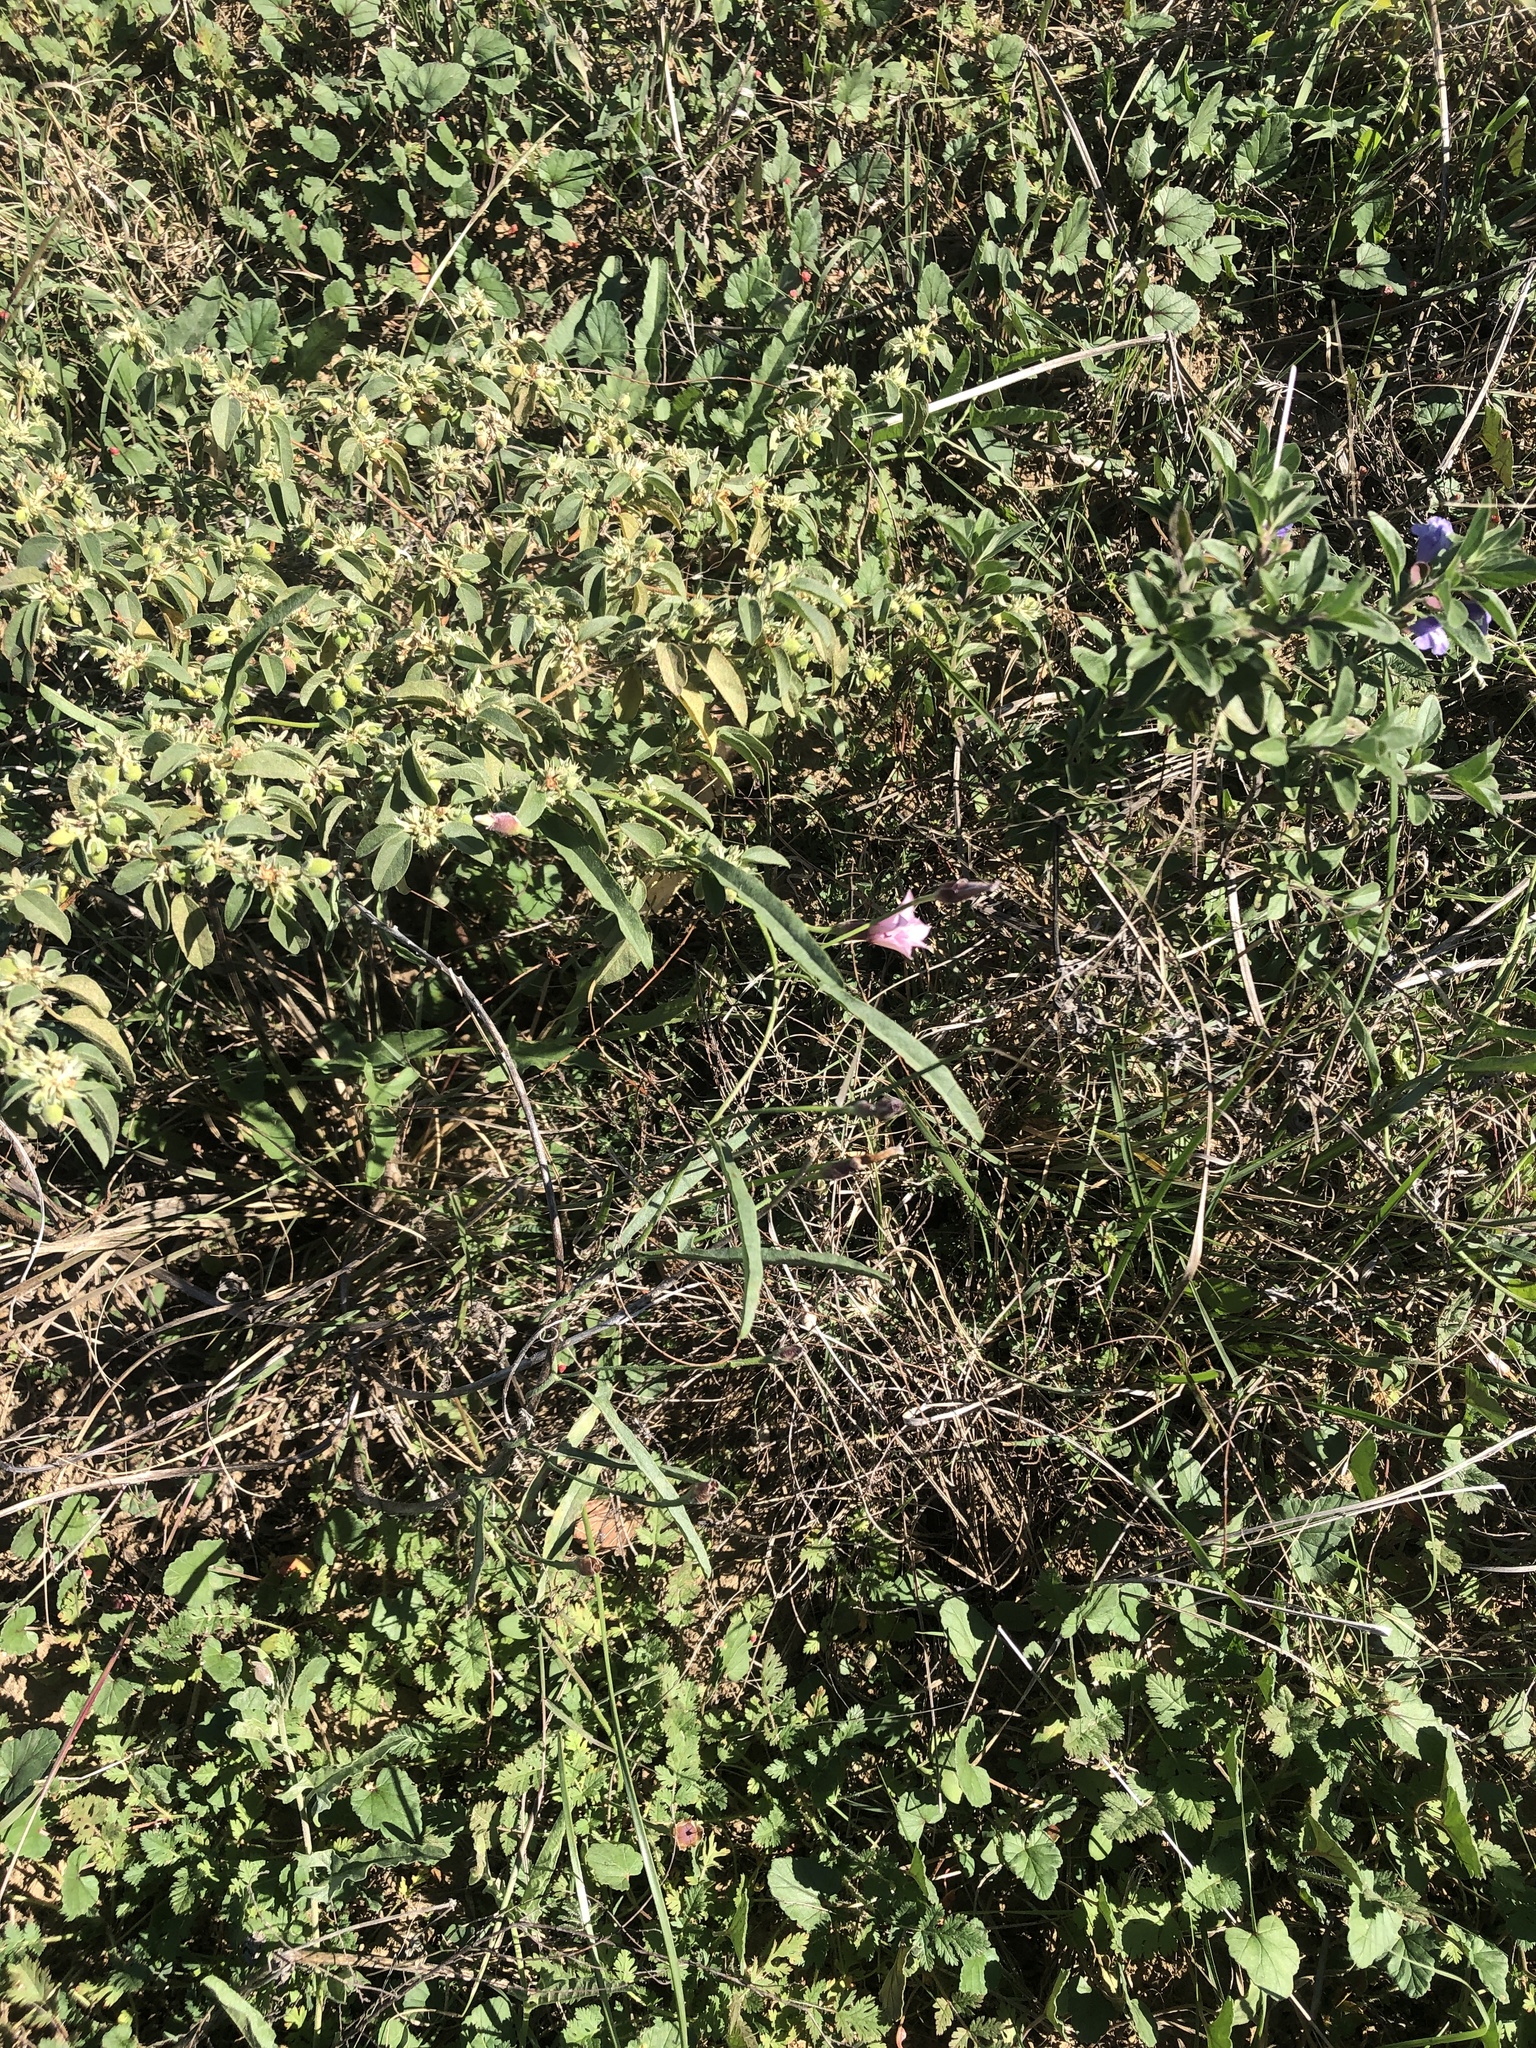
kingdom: Plantae
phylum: Tracheophyta
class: Magnoliopsida
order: Solanales
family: Convolvulaceae
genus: Convolvulus
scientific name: Convolvulus equitans
